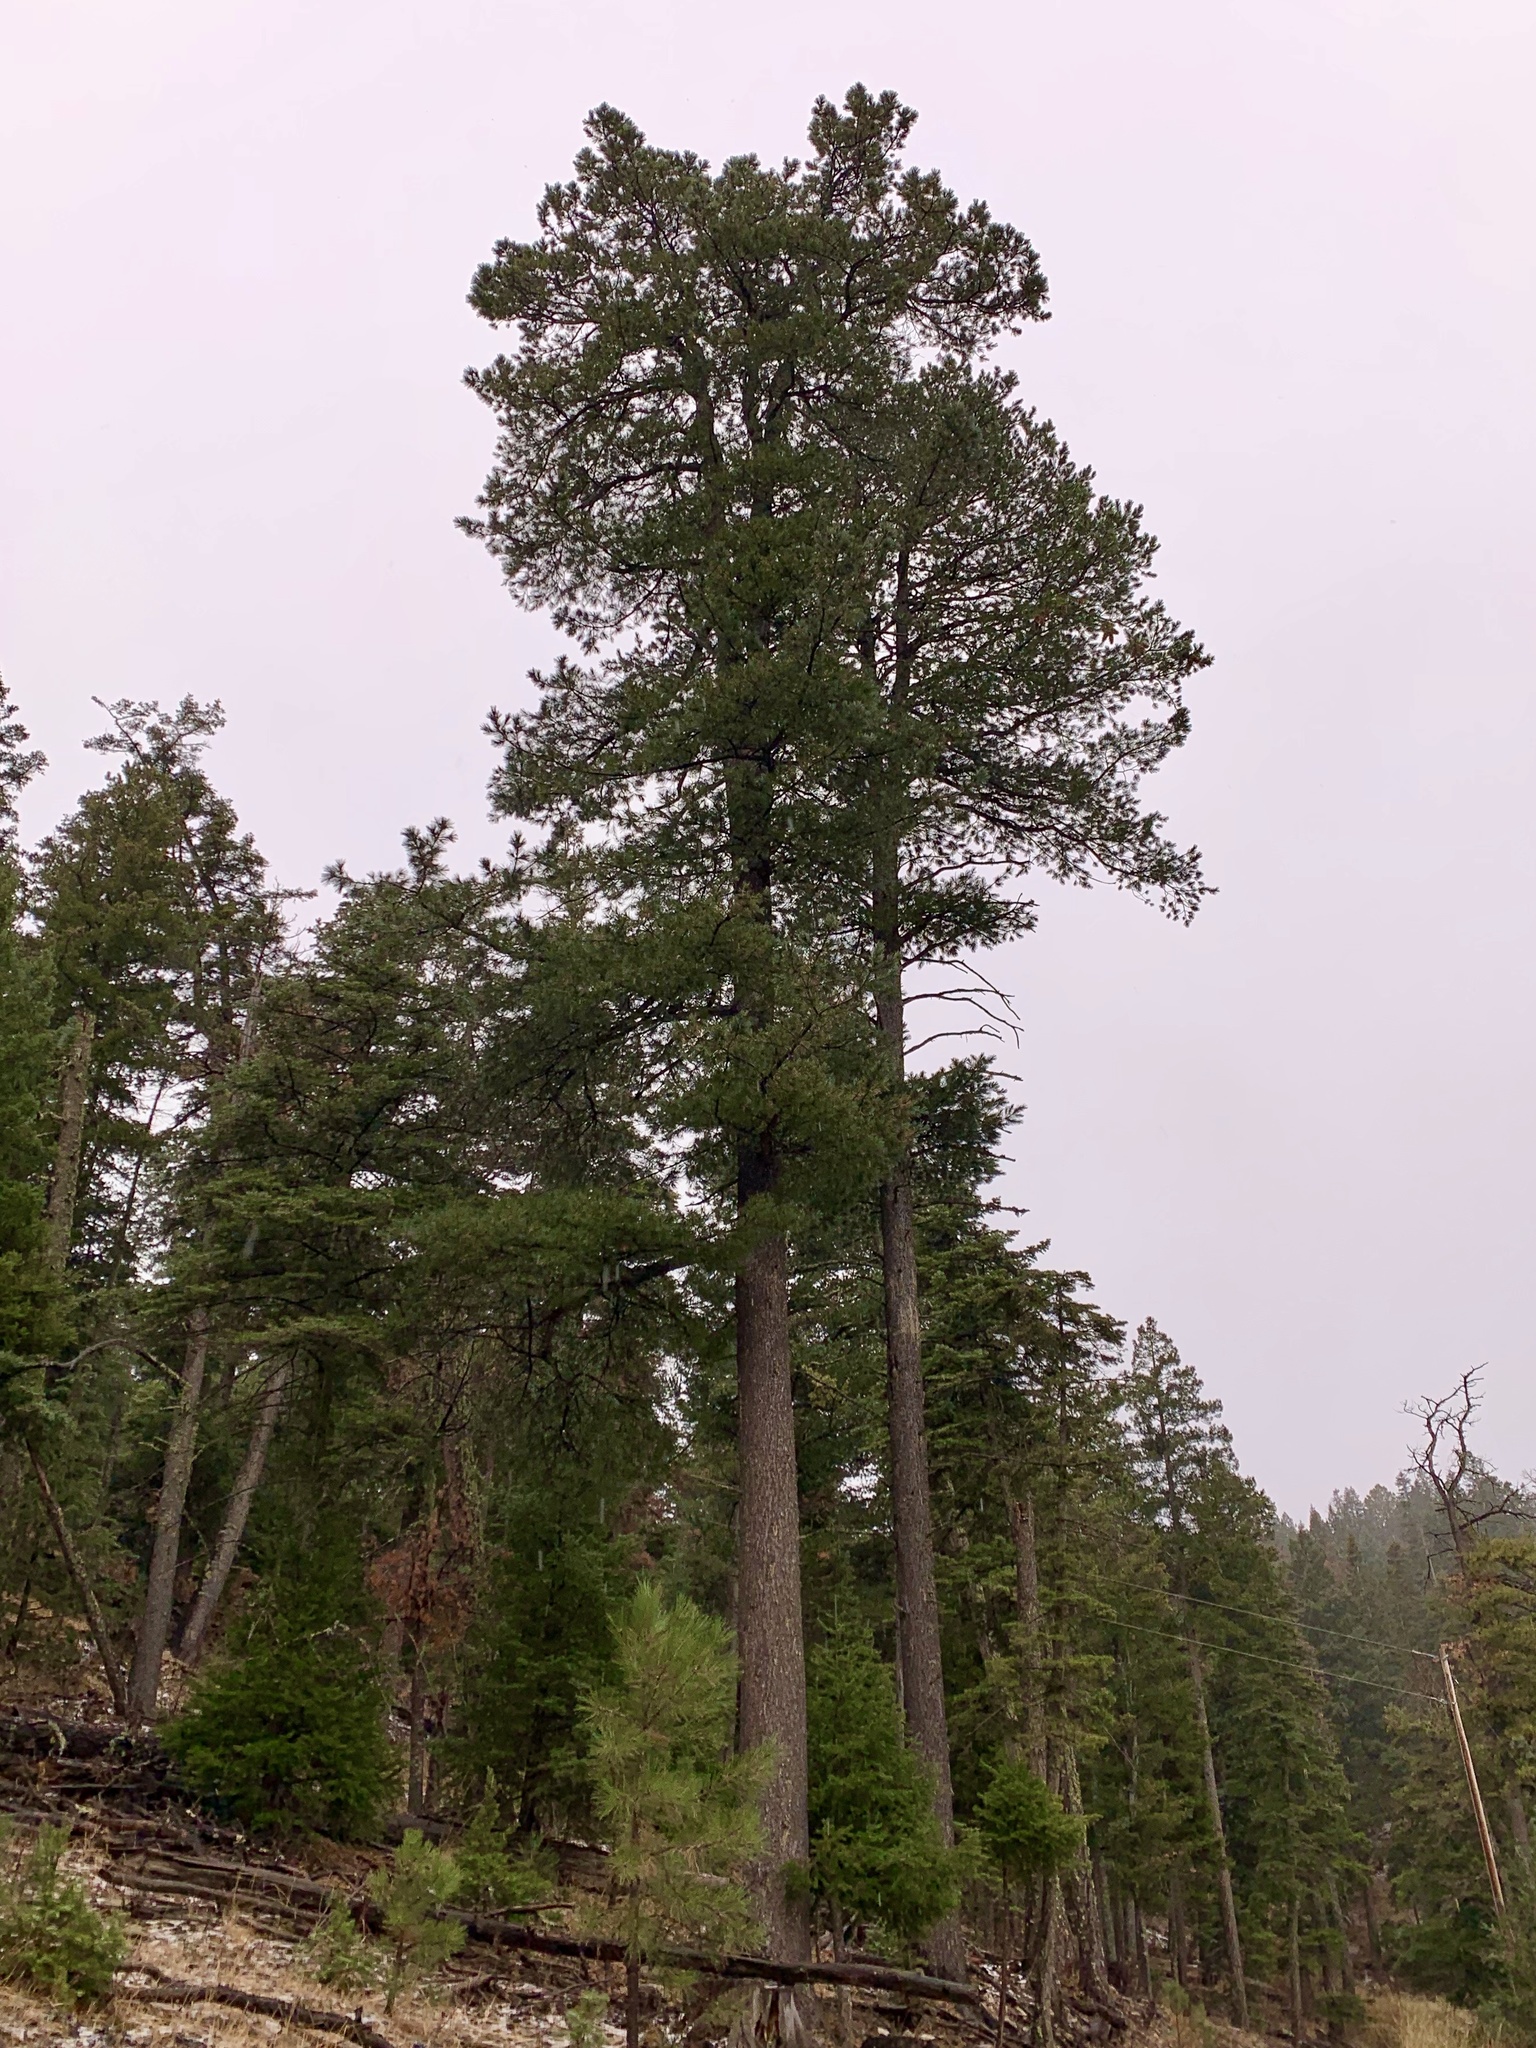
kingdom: Plantae
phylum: Tracheophyta
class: Pinopsida
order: Pinales
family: Pinaceae
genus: Pinus
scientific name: Pinus strobiformis
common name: Southwestern white pine
